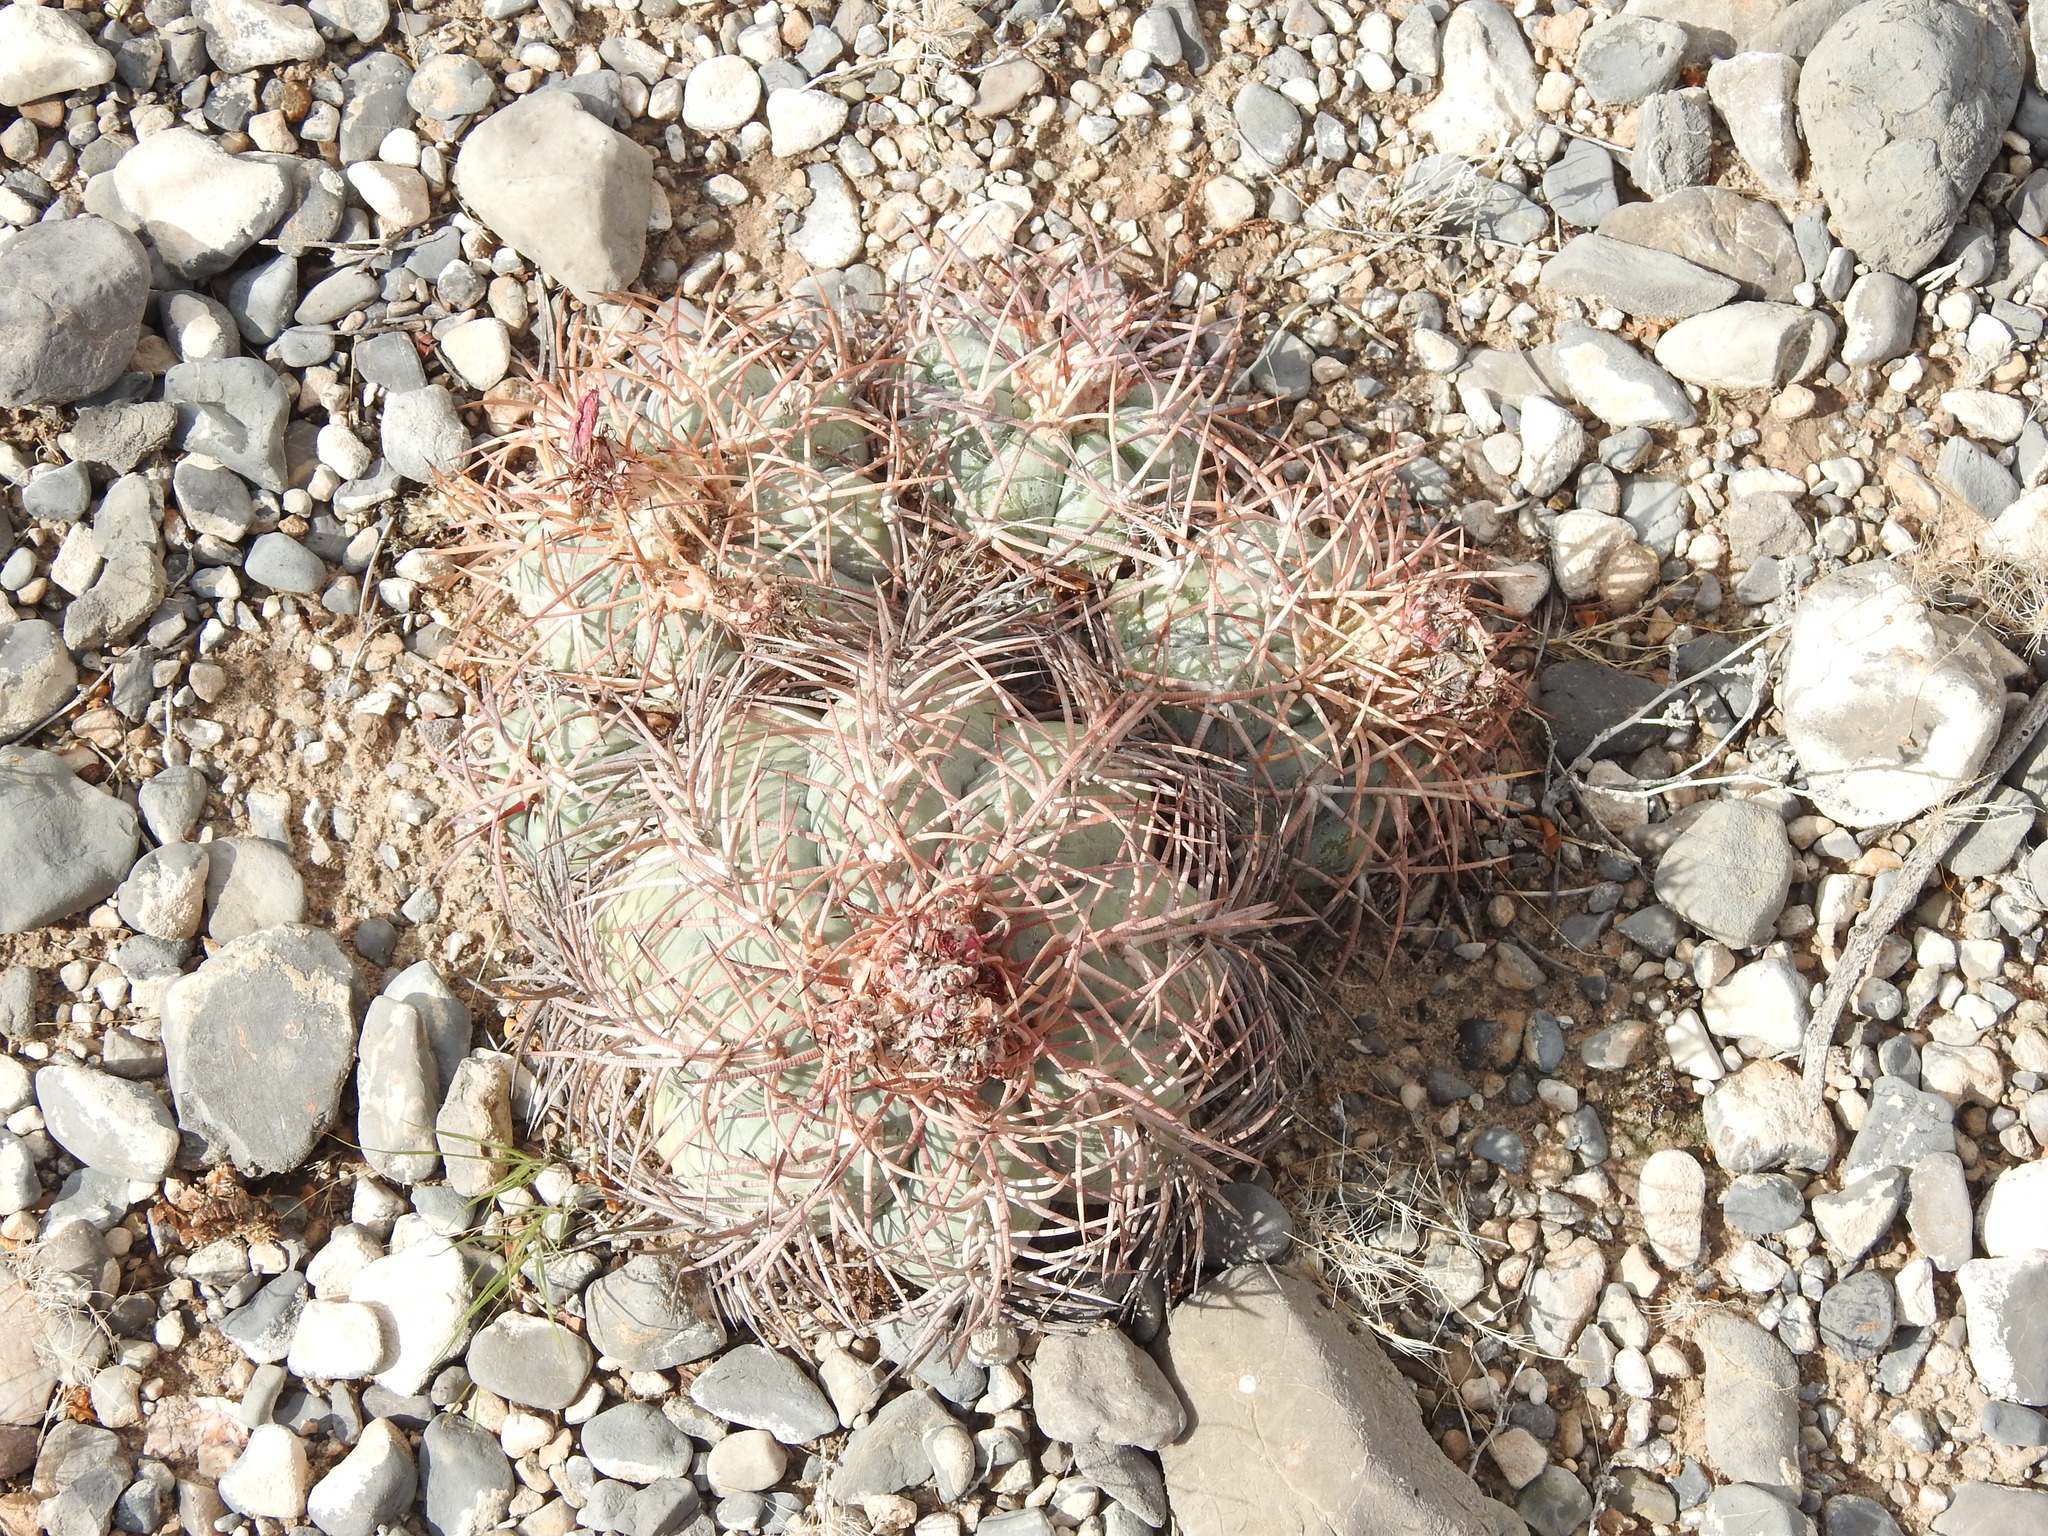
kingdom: Plantae
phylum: Tracheophyta
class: Magnoliopsida
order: Caryophyllales
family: Cactaceae
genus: Echinocactus
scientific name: Echinocactus horizonthalonius
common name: Devilshead
